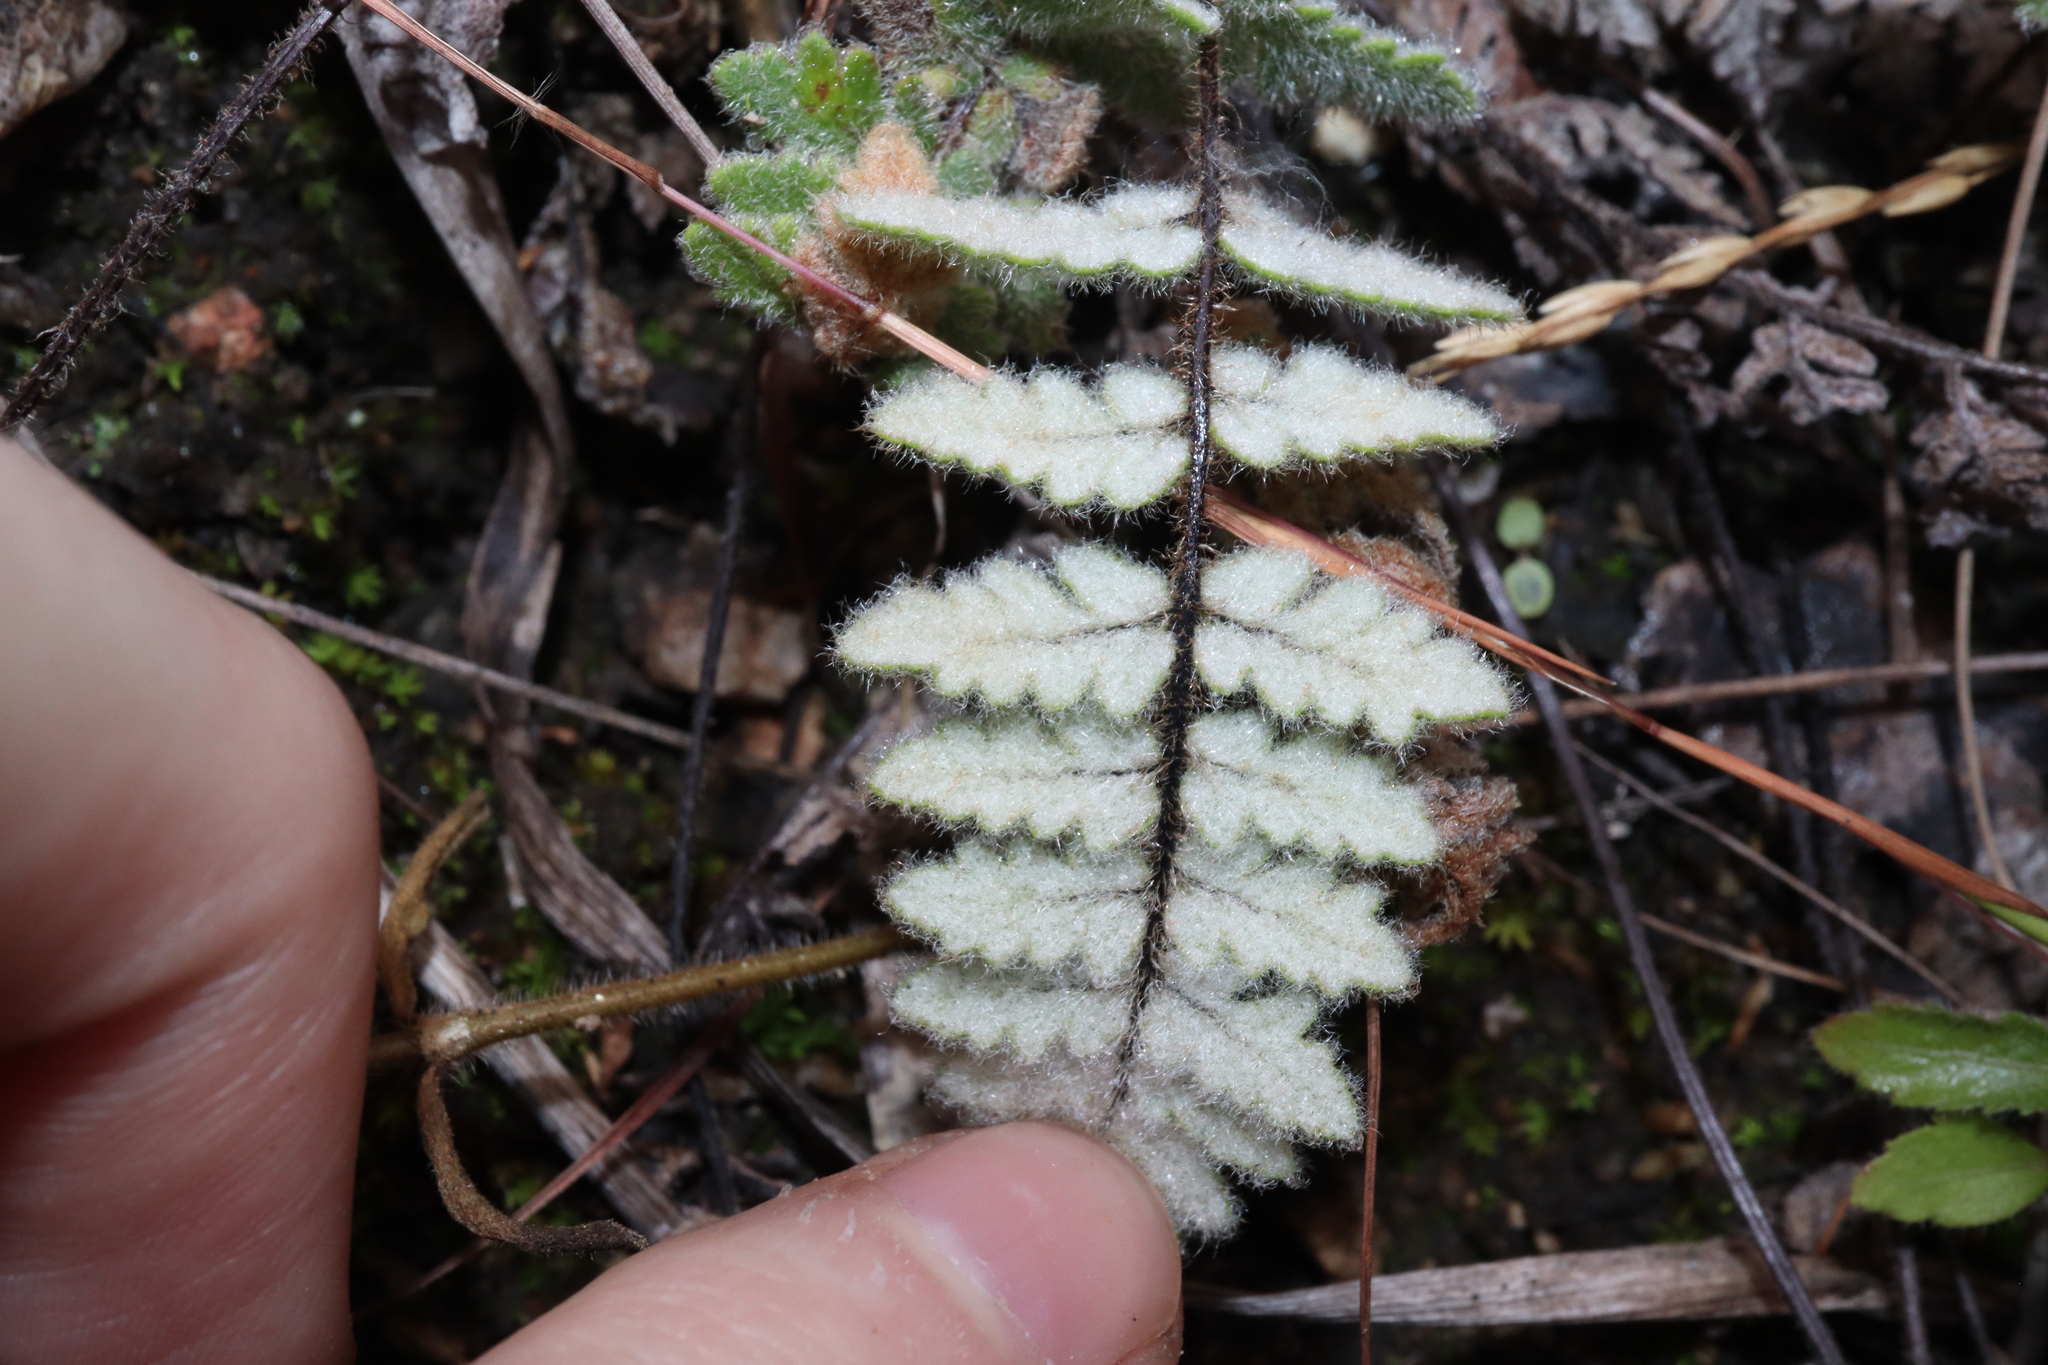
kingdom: Plantae
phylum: Tracheophyta
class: Polypodiopsida
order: Polypodiales
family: Pteridaceae
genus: Cheilanthes
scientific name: Cheilanthes brownii
